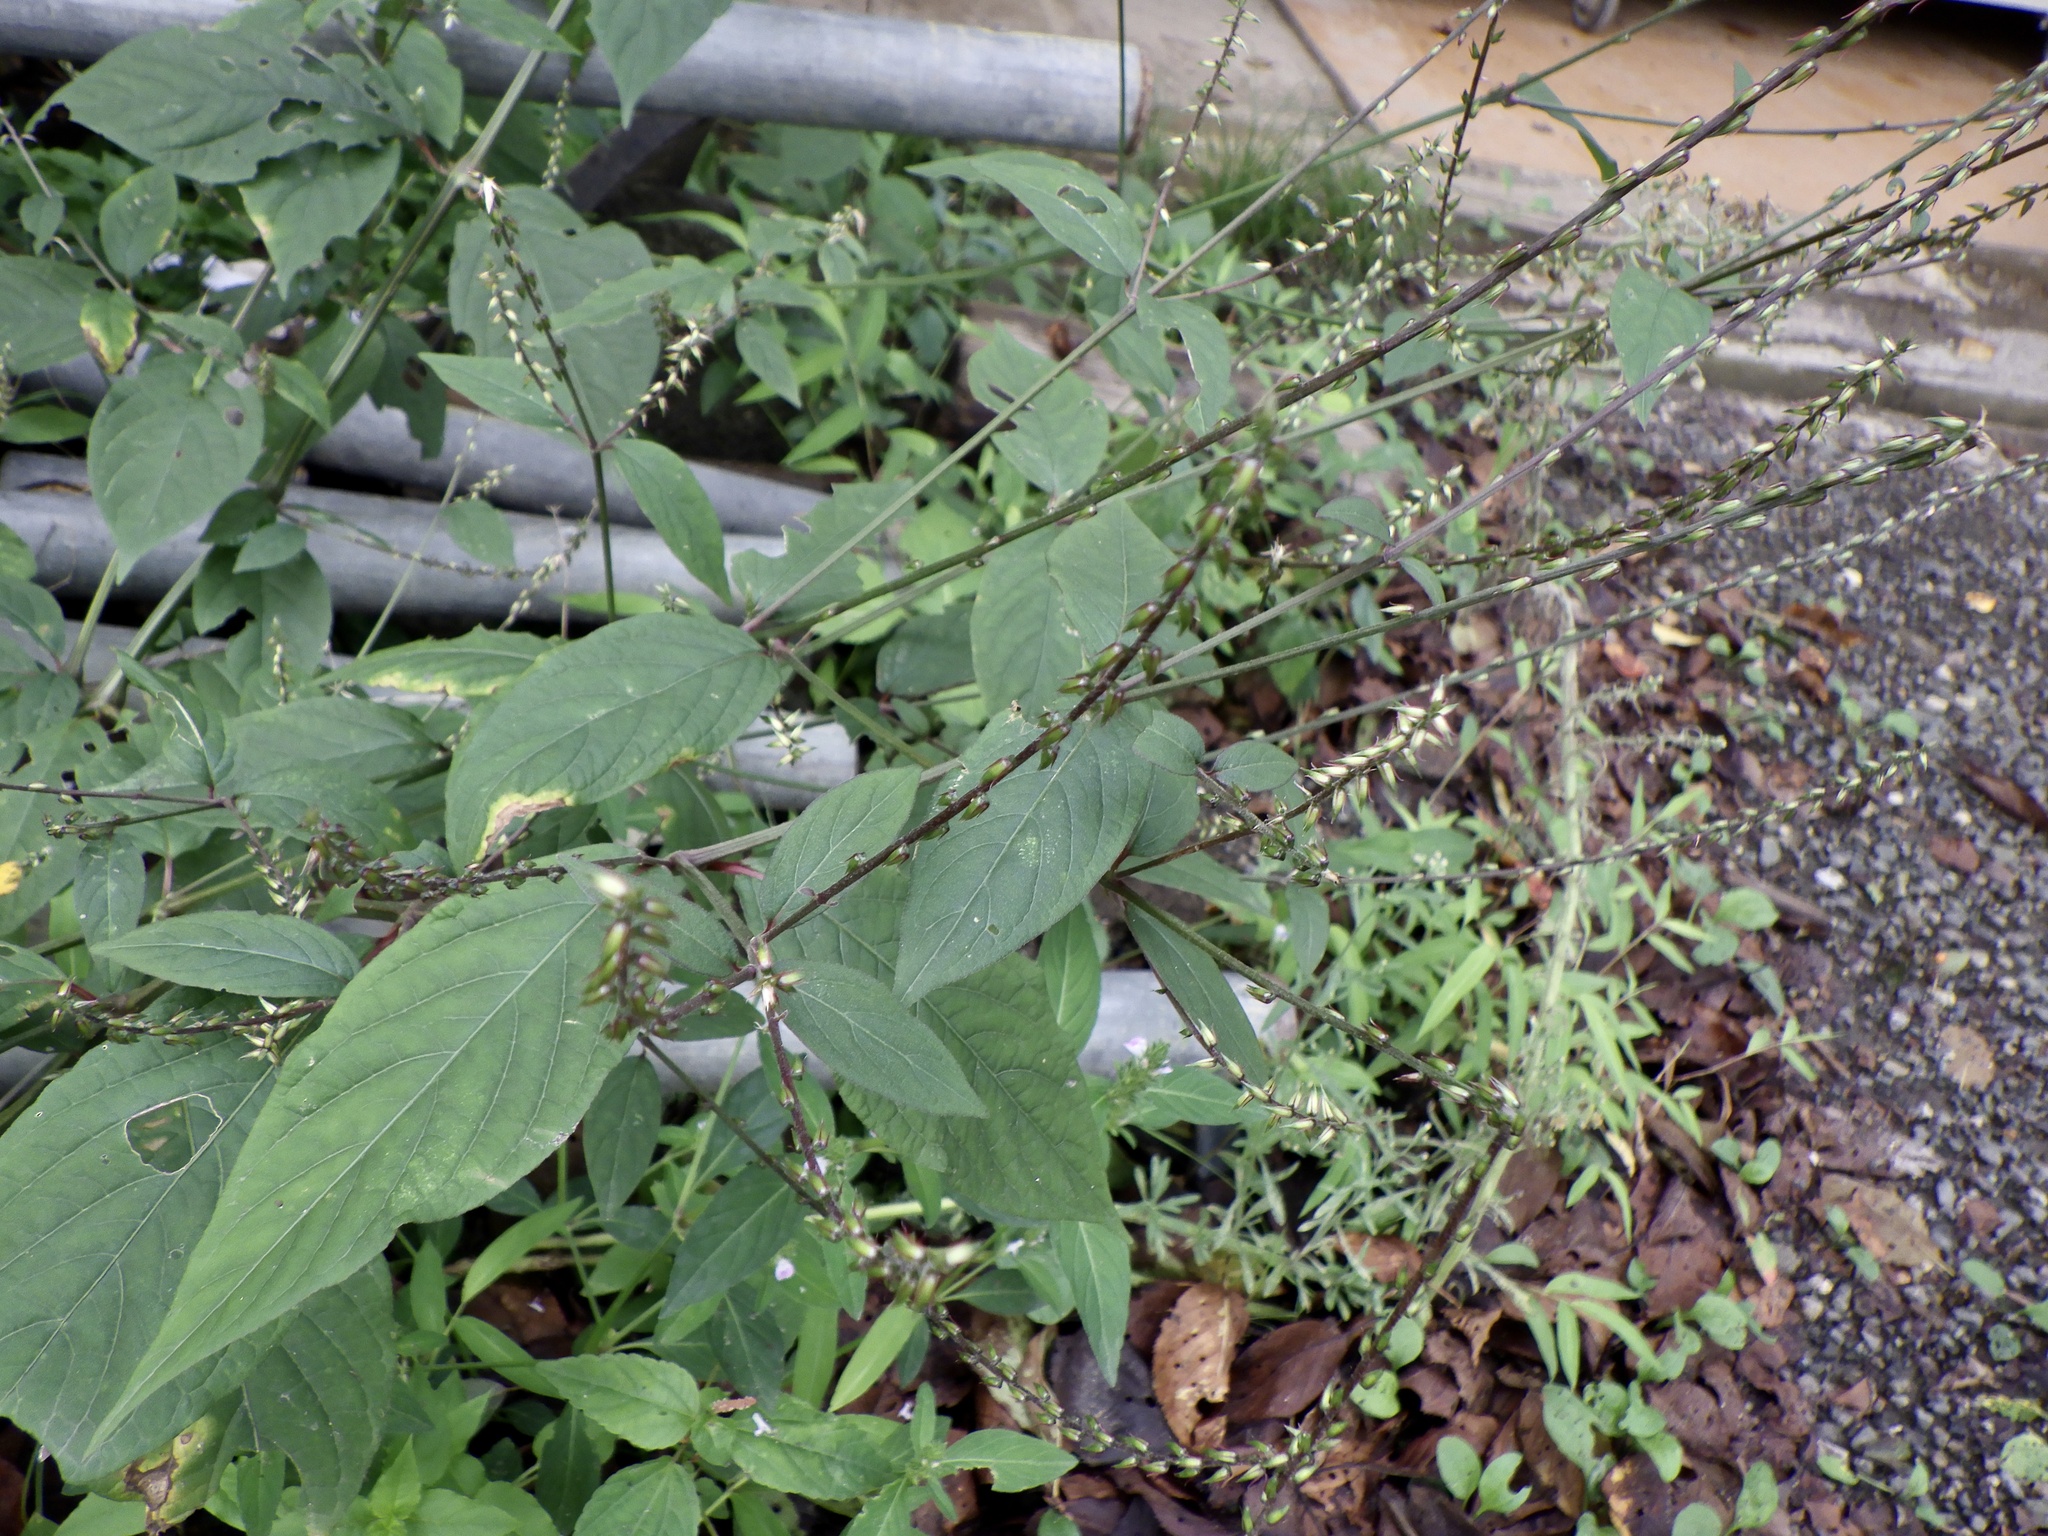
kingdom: Plantae
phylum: Tracheophyta
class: Magnoliopsida
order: Caryophyllales
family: Amaranthaceae
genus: Achyranthes
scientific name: Achyranthes bidentata
